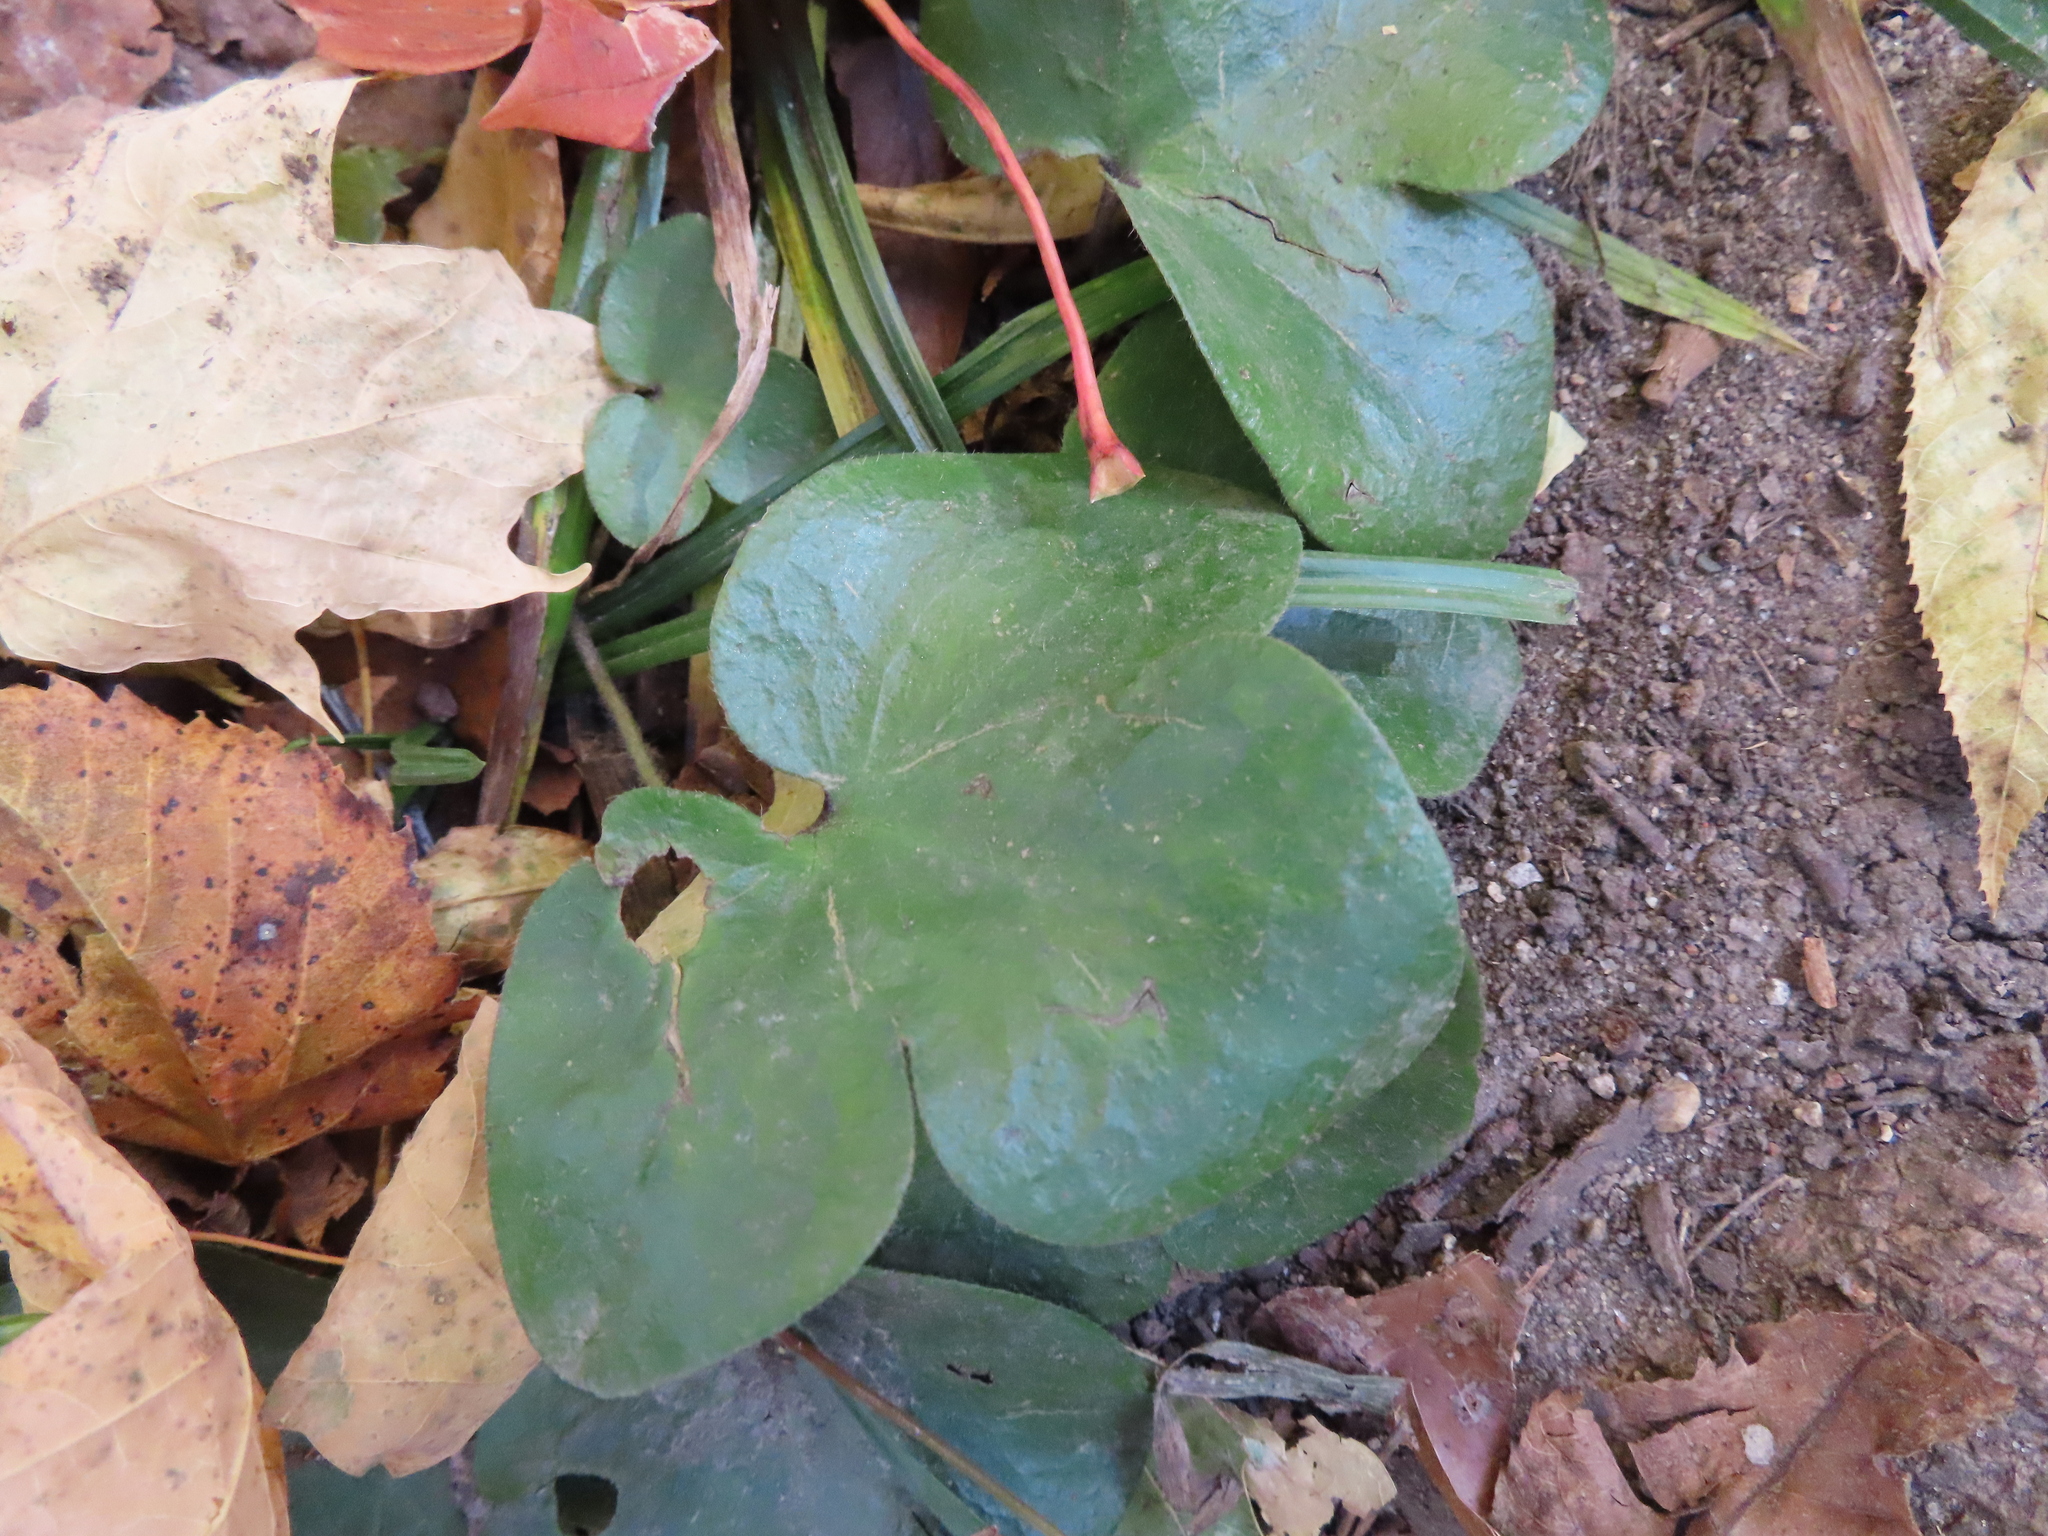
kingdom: Plantae
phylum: Tracheophyta
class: Magnoliopsida
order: Ranunculales
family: Ranunculaceae
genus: Hepatica
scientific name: Hepatica americana
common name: American hepatica
